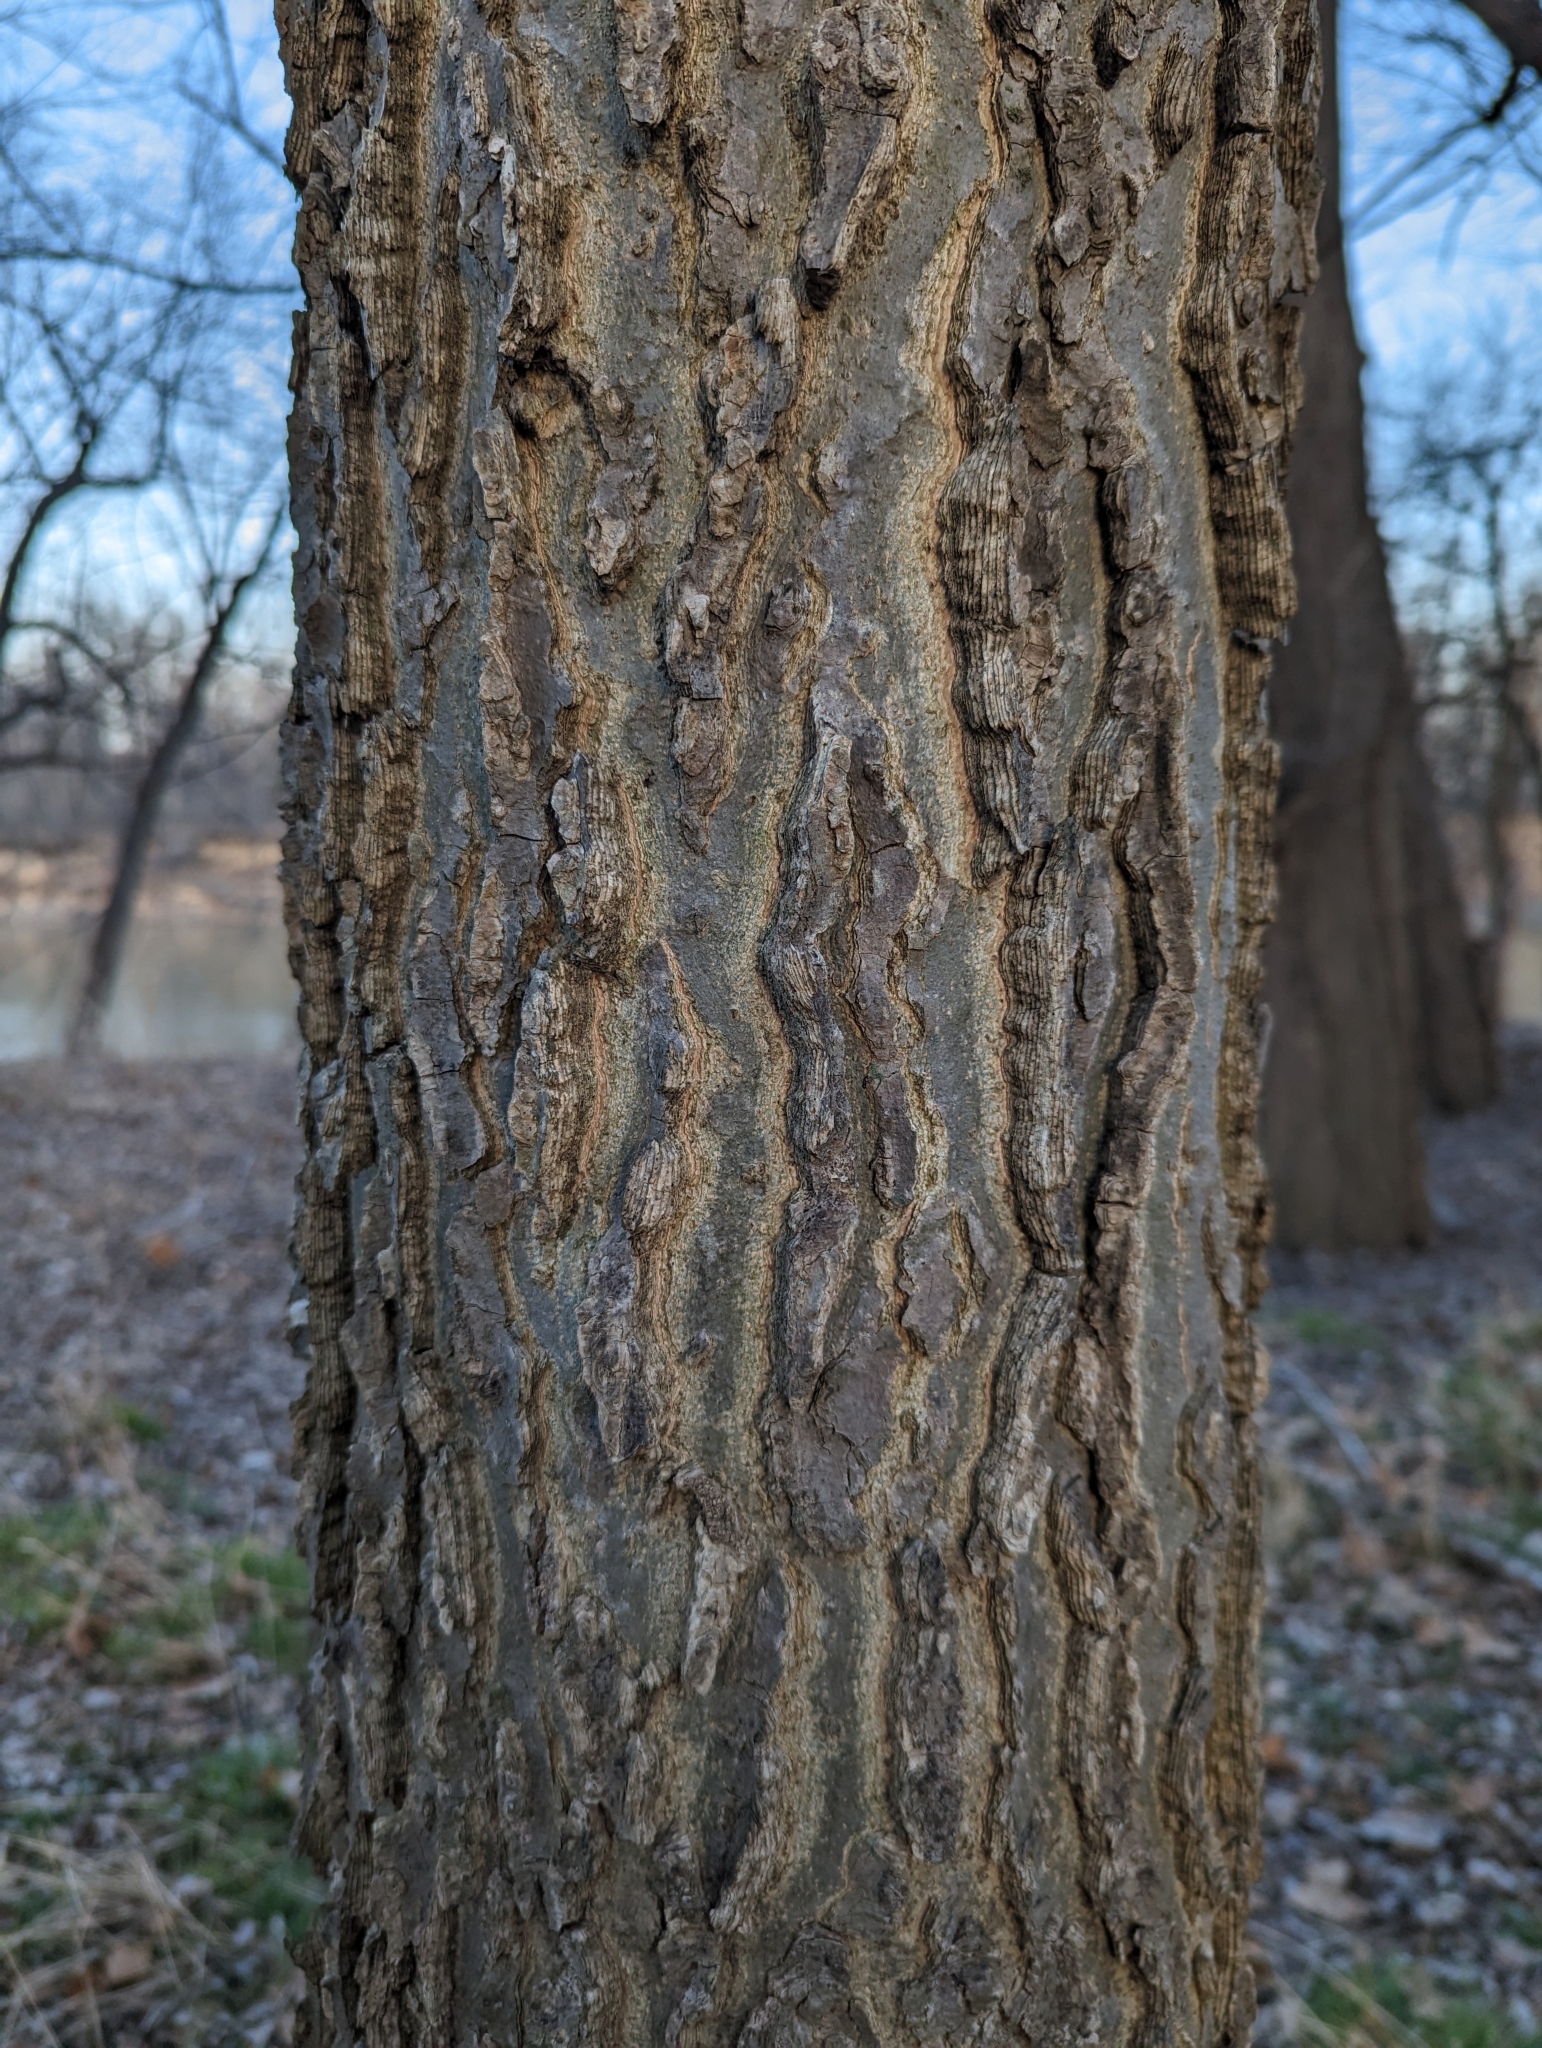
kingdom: Plantae
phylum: Tracheophyta
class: Magnoliopsida
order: Rosales
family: Cannabaceae
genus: Celtis
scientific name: Celtis occidentalis
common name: Common hackberry
